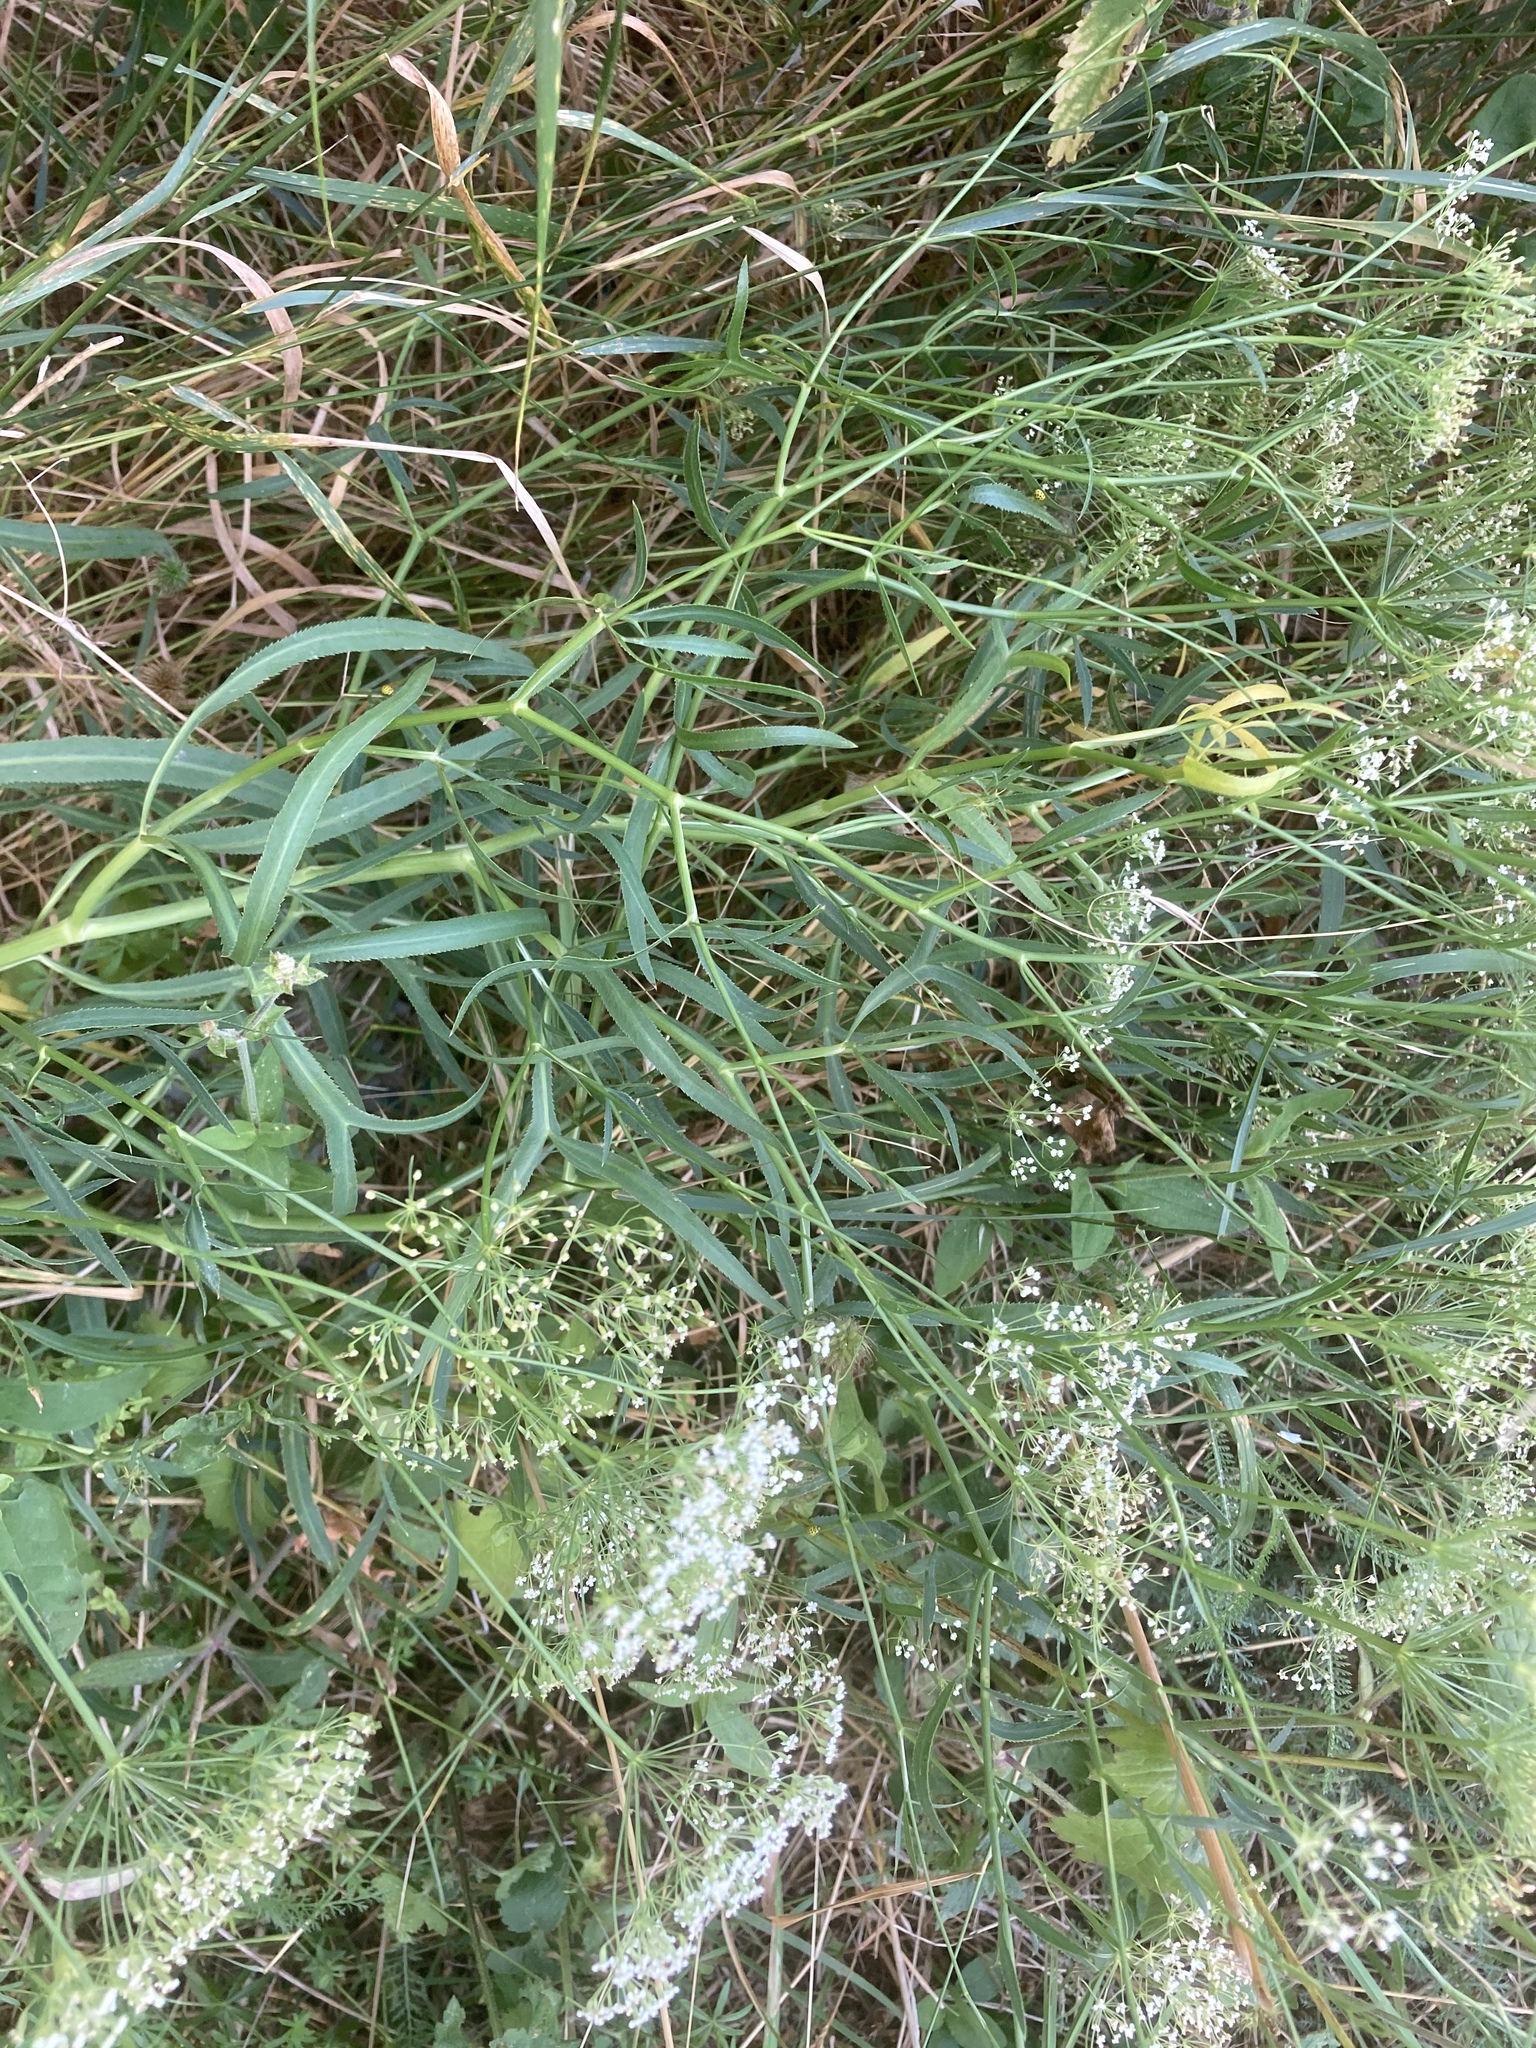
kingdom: Plantae
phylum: Tracheophyta
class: Magnoliopsida
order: Apiales
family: Apiaceae
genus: Falcaria
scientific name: Falcaria vulgaris
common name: Longleaf
